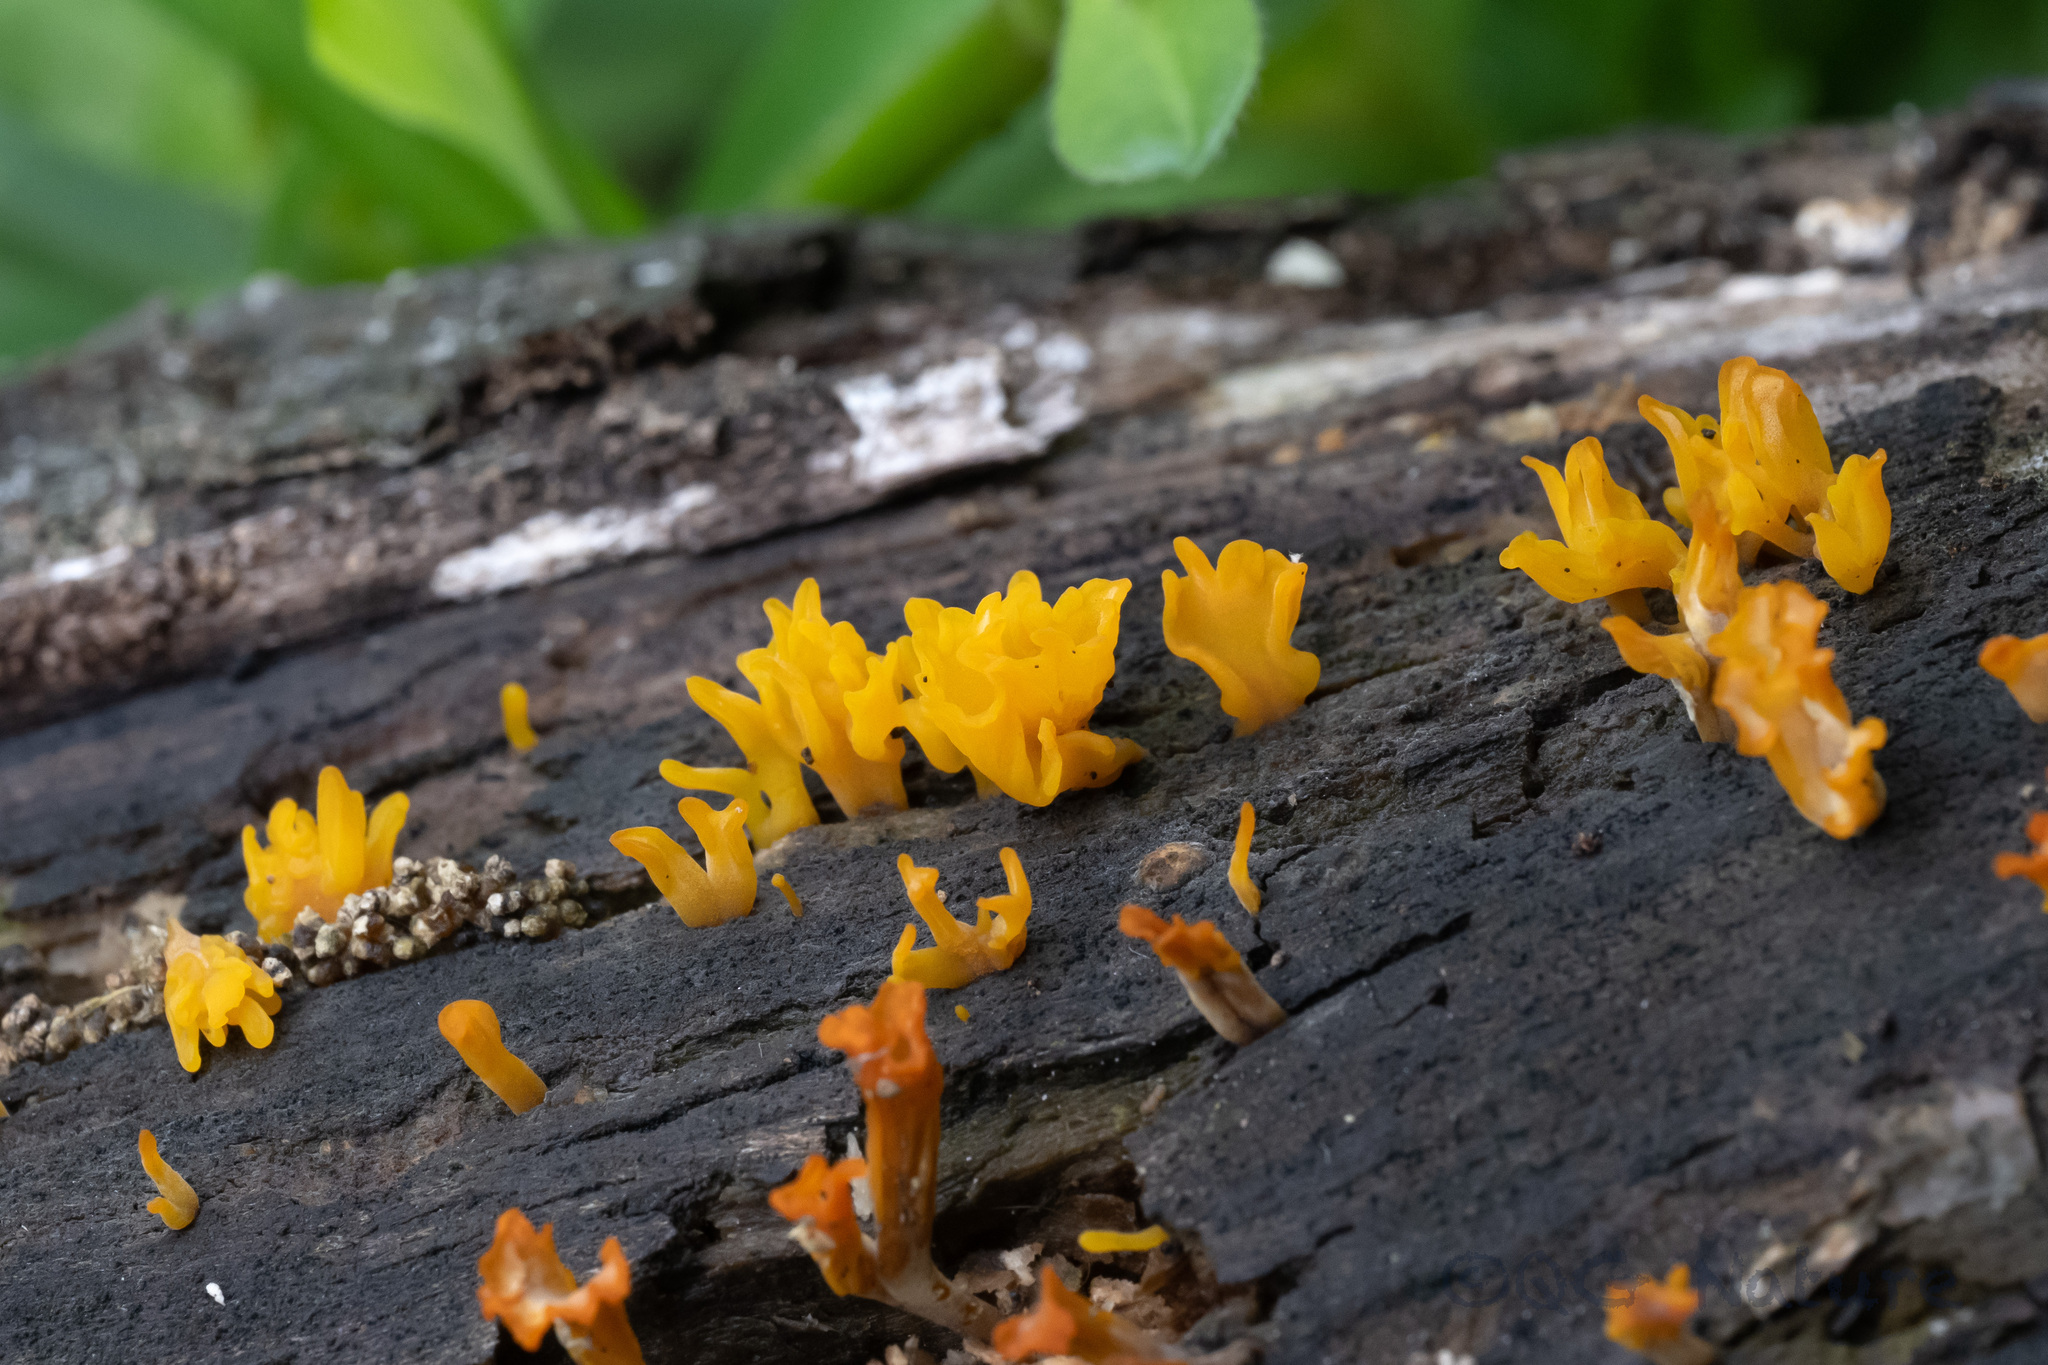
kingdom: Fungi
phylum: Basidiomycota
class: Dacrymycetes
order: Dacrymycetales
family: Dacrymycetaceae
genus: Dacrymyces
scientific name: Dacrymyces spathularius
